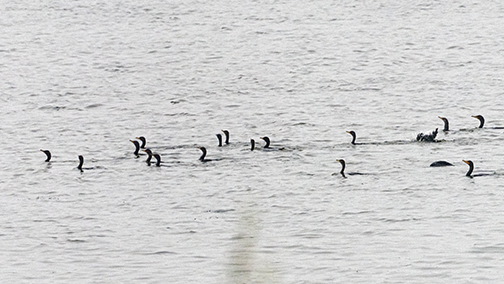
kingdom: Animalia
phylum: Chordata
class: Aves
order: Suliformes
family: Phalacrocoracidae
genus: Phalacrocorax
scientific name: Phalacrocorax auritus
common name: Double-crested cormorant
